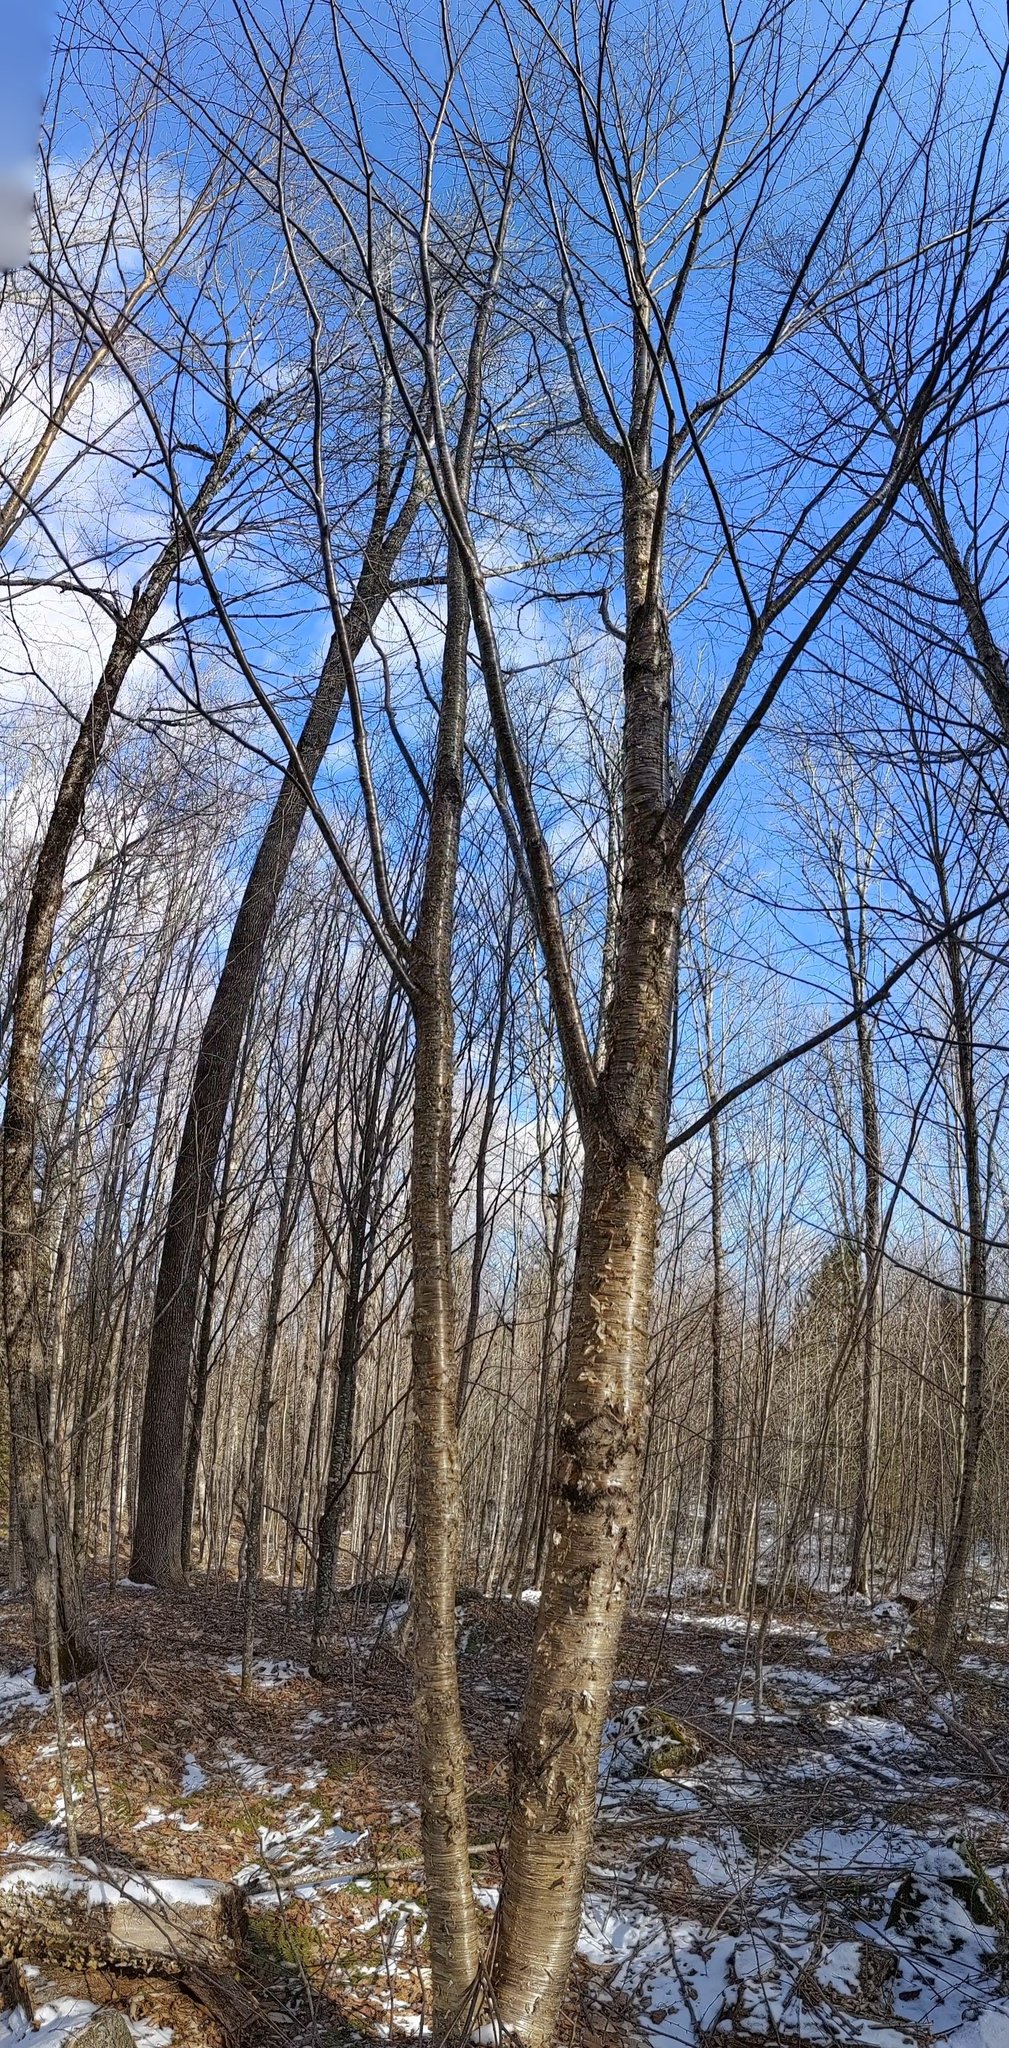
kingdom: Plantae
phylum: Tracheophyta
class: Magnoliopsida
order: Fagales
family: Betulaceae
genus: Betula
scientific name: Betula alleghaniensis
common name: Yellow birch
